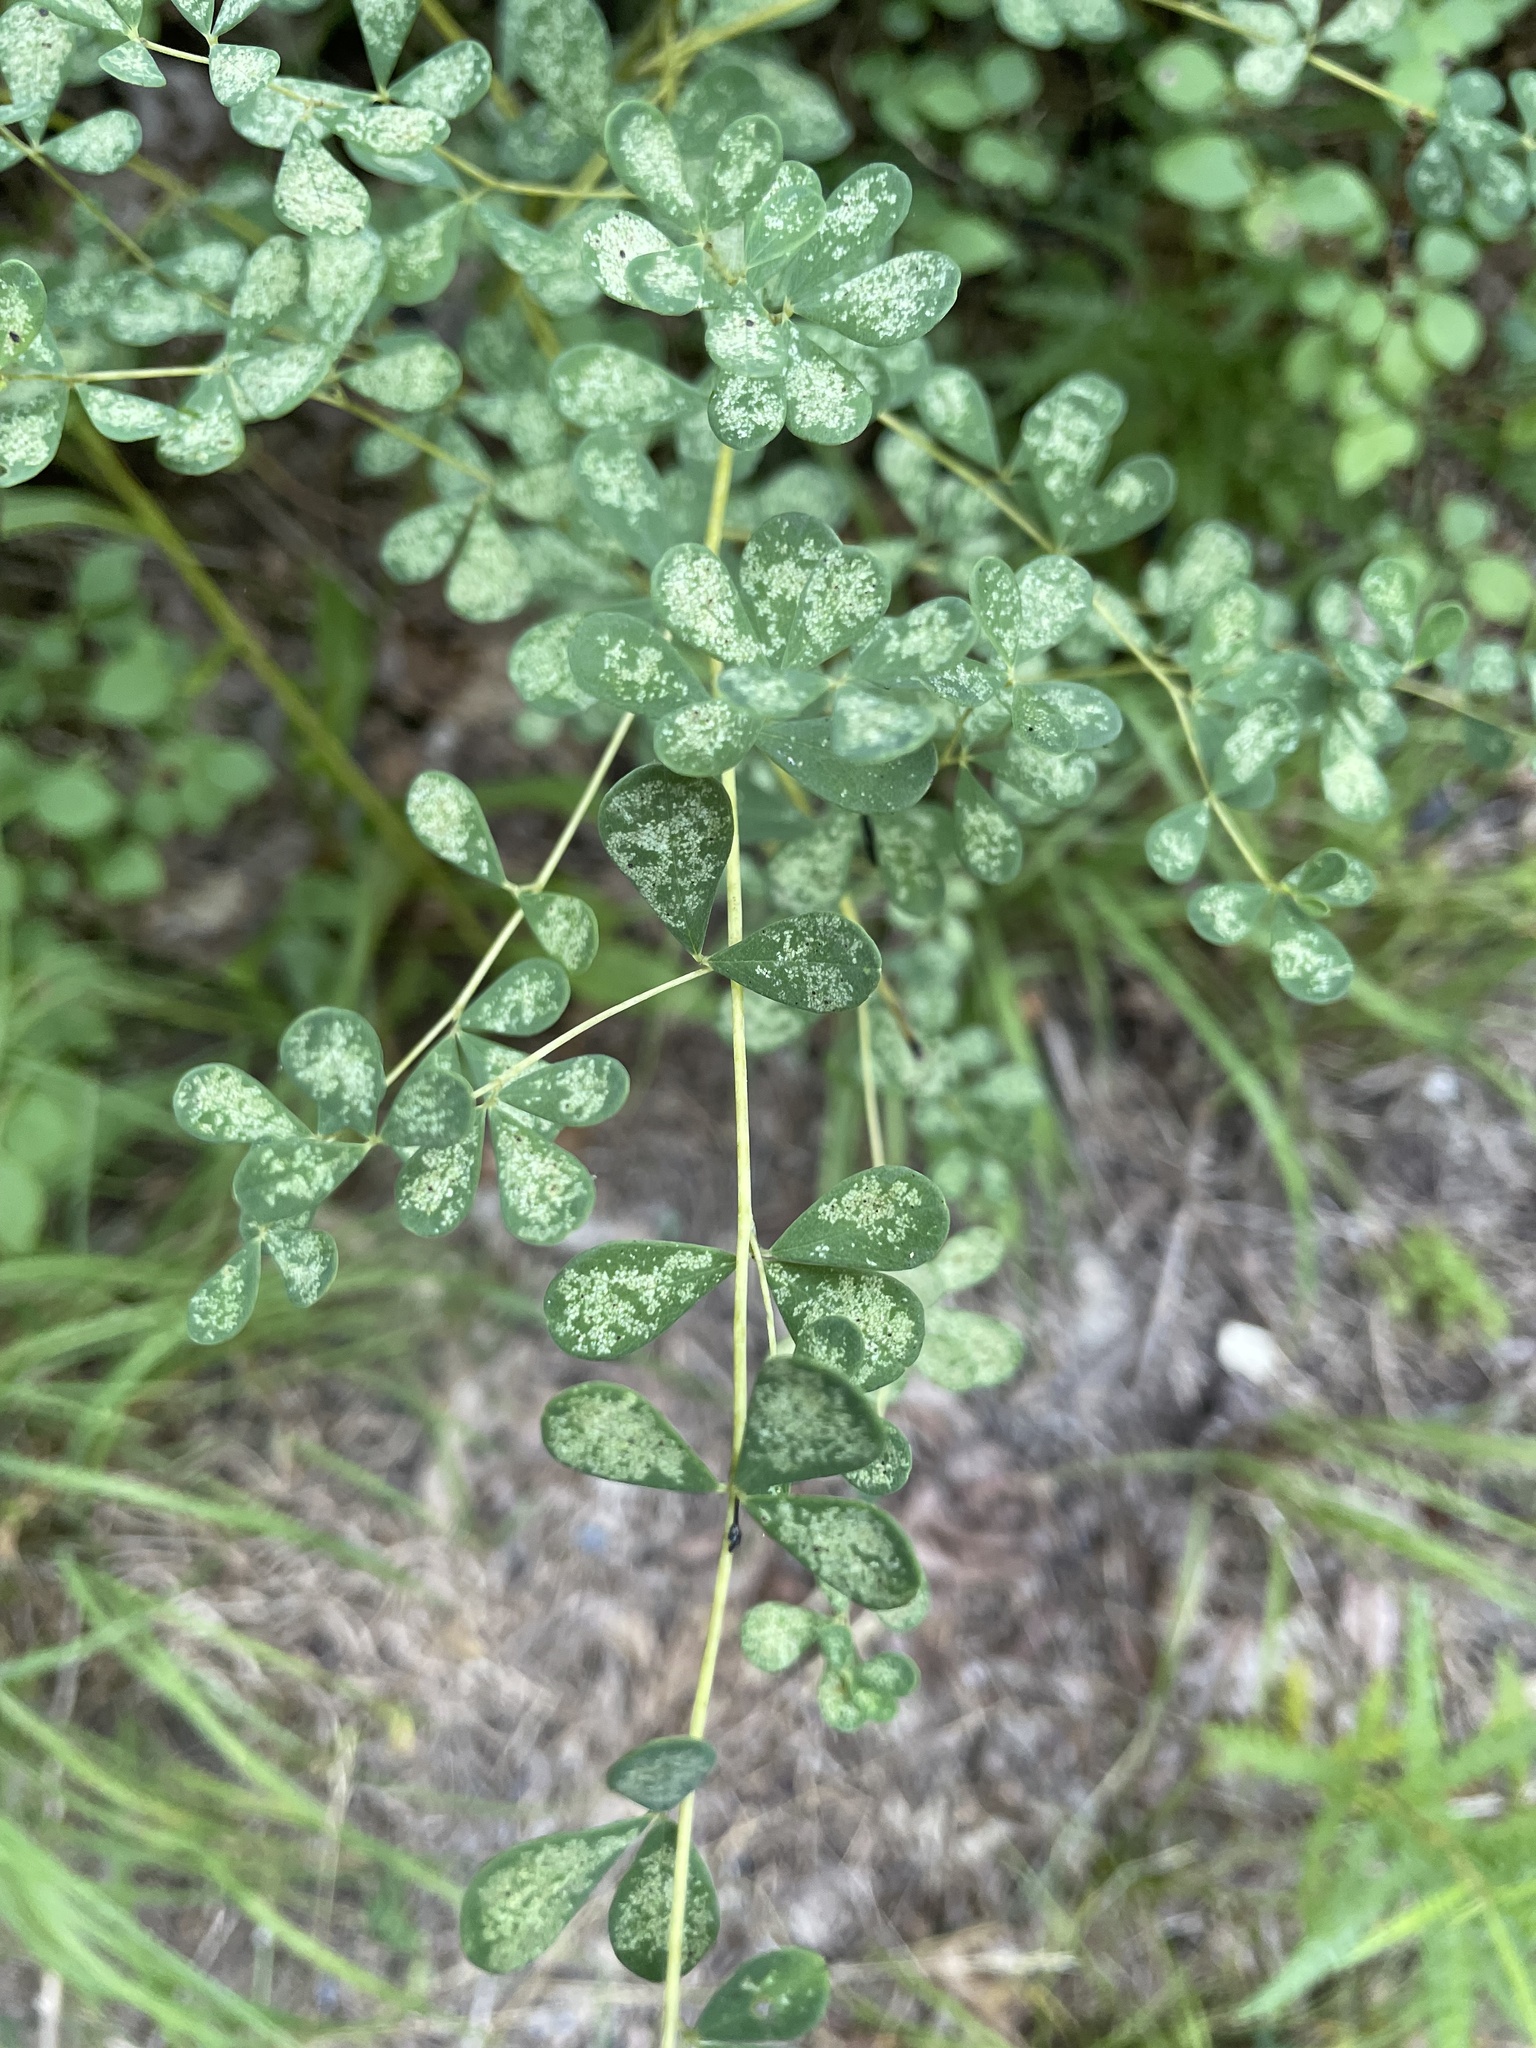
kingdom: Plantae
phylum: Tracheophyta
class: Magnoliopsida
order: Fabales
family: Fabaceae
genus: Baptisia
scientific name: Baptisia tinctoria
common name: Wild indigo
